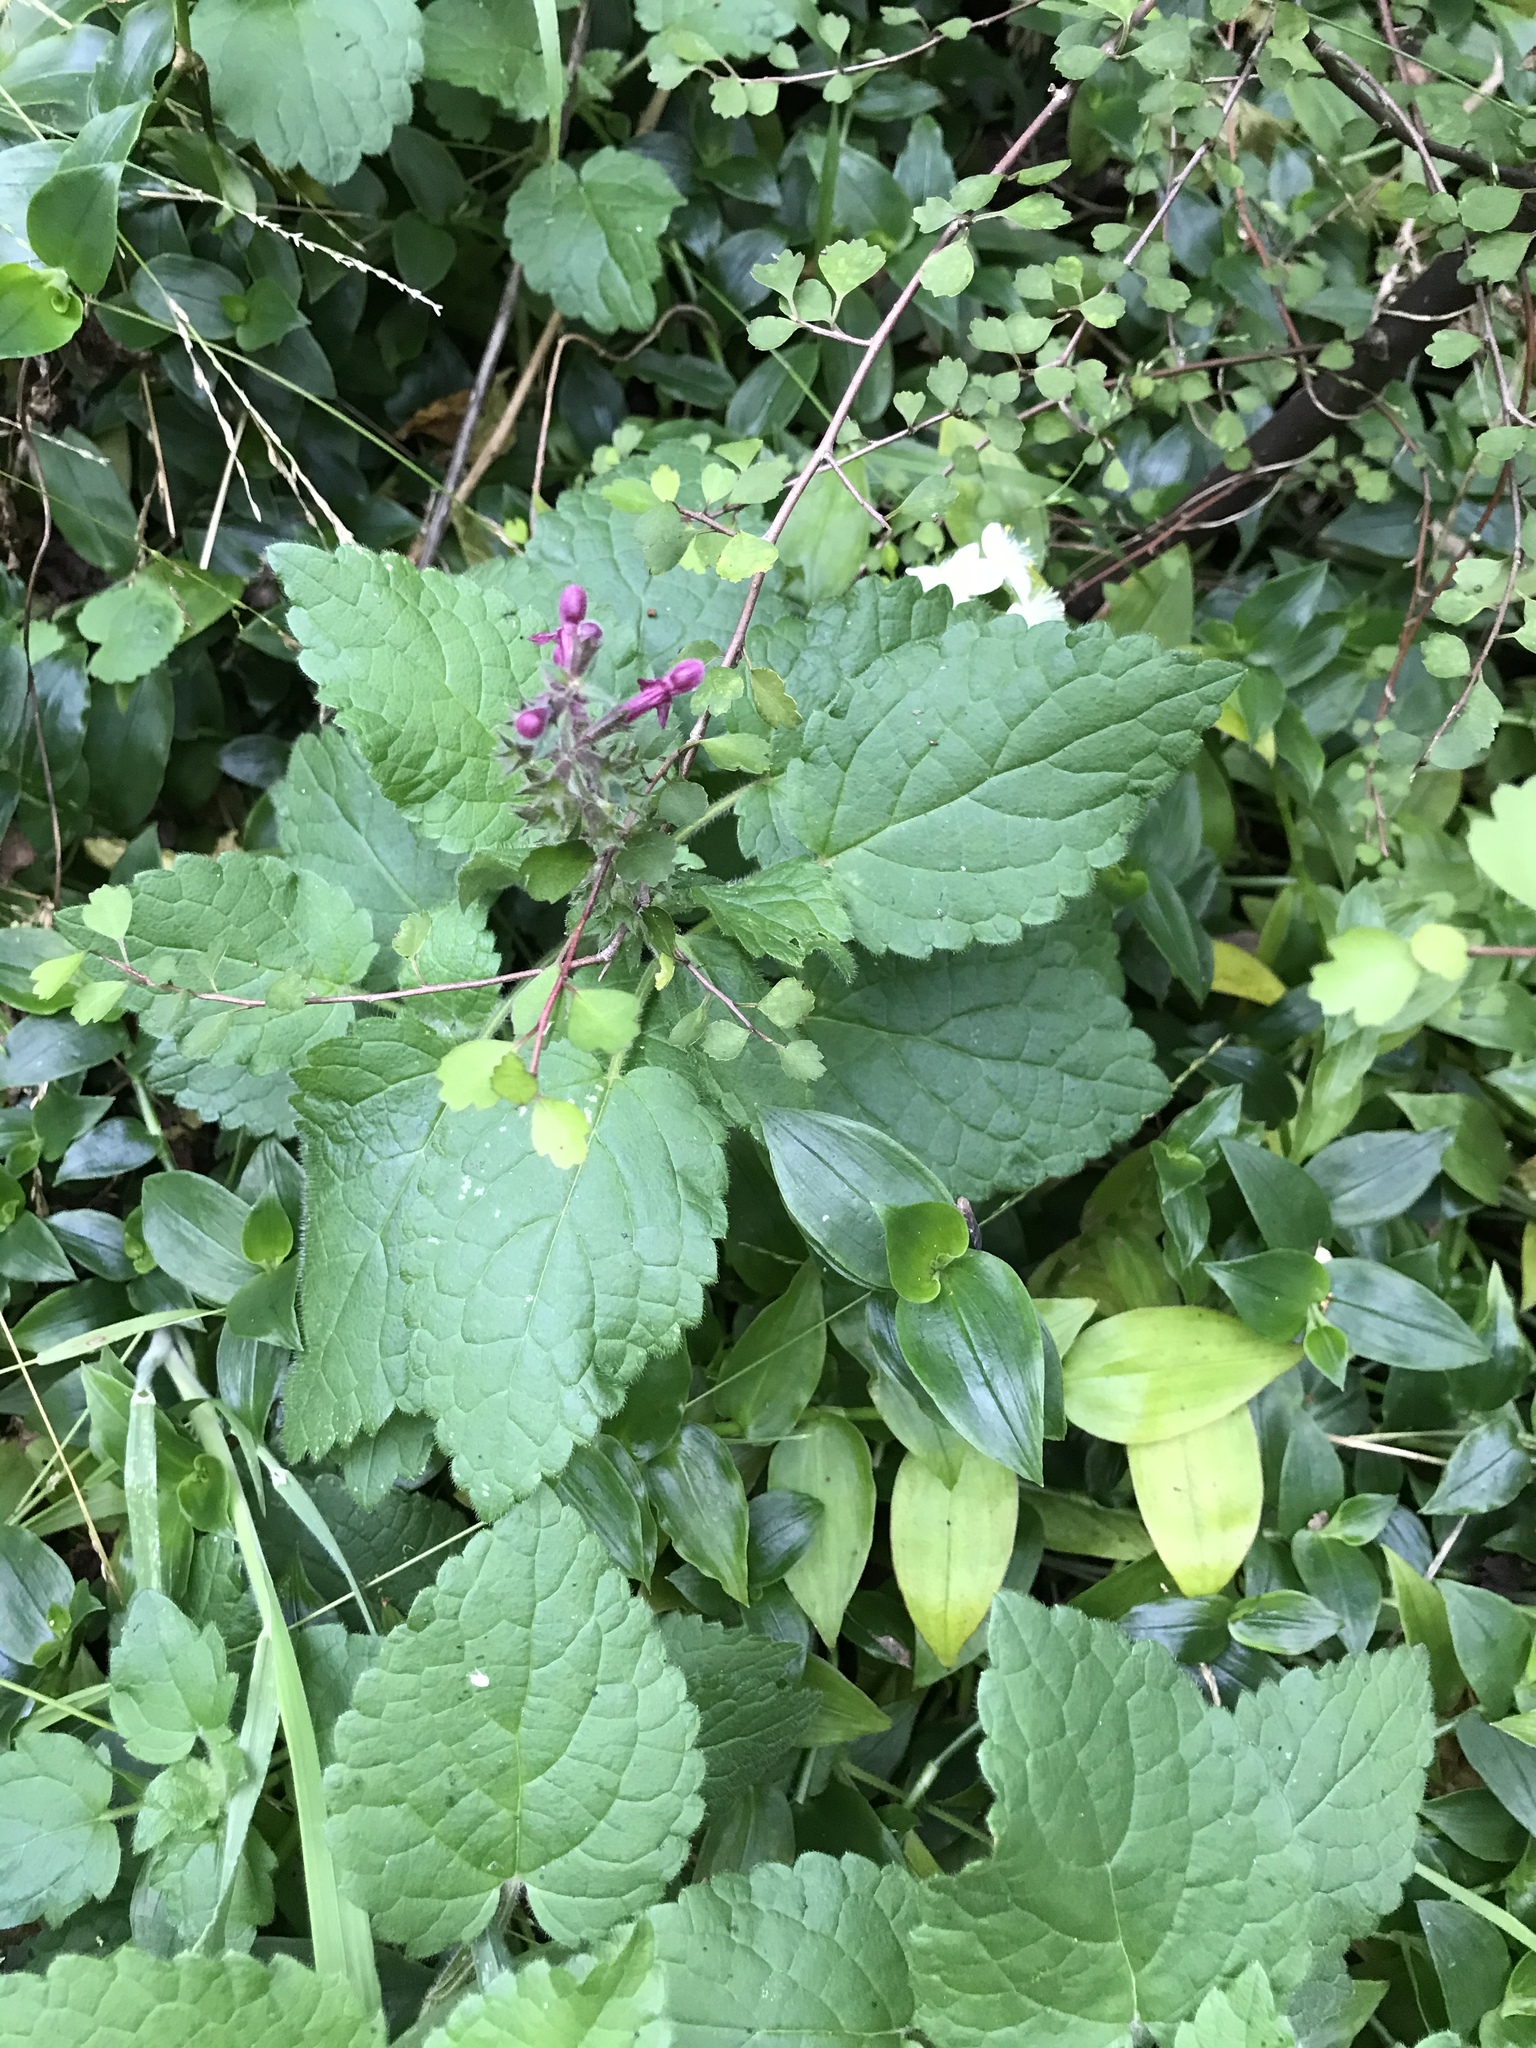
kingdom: Plantae
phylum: Tracheophyta
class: Magnoliopsida
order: Lamiales
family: Lamiaceae
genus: Stachys
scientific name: Stachys sylvatica
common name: Hedge woundwort
